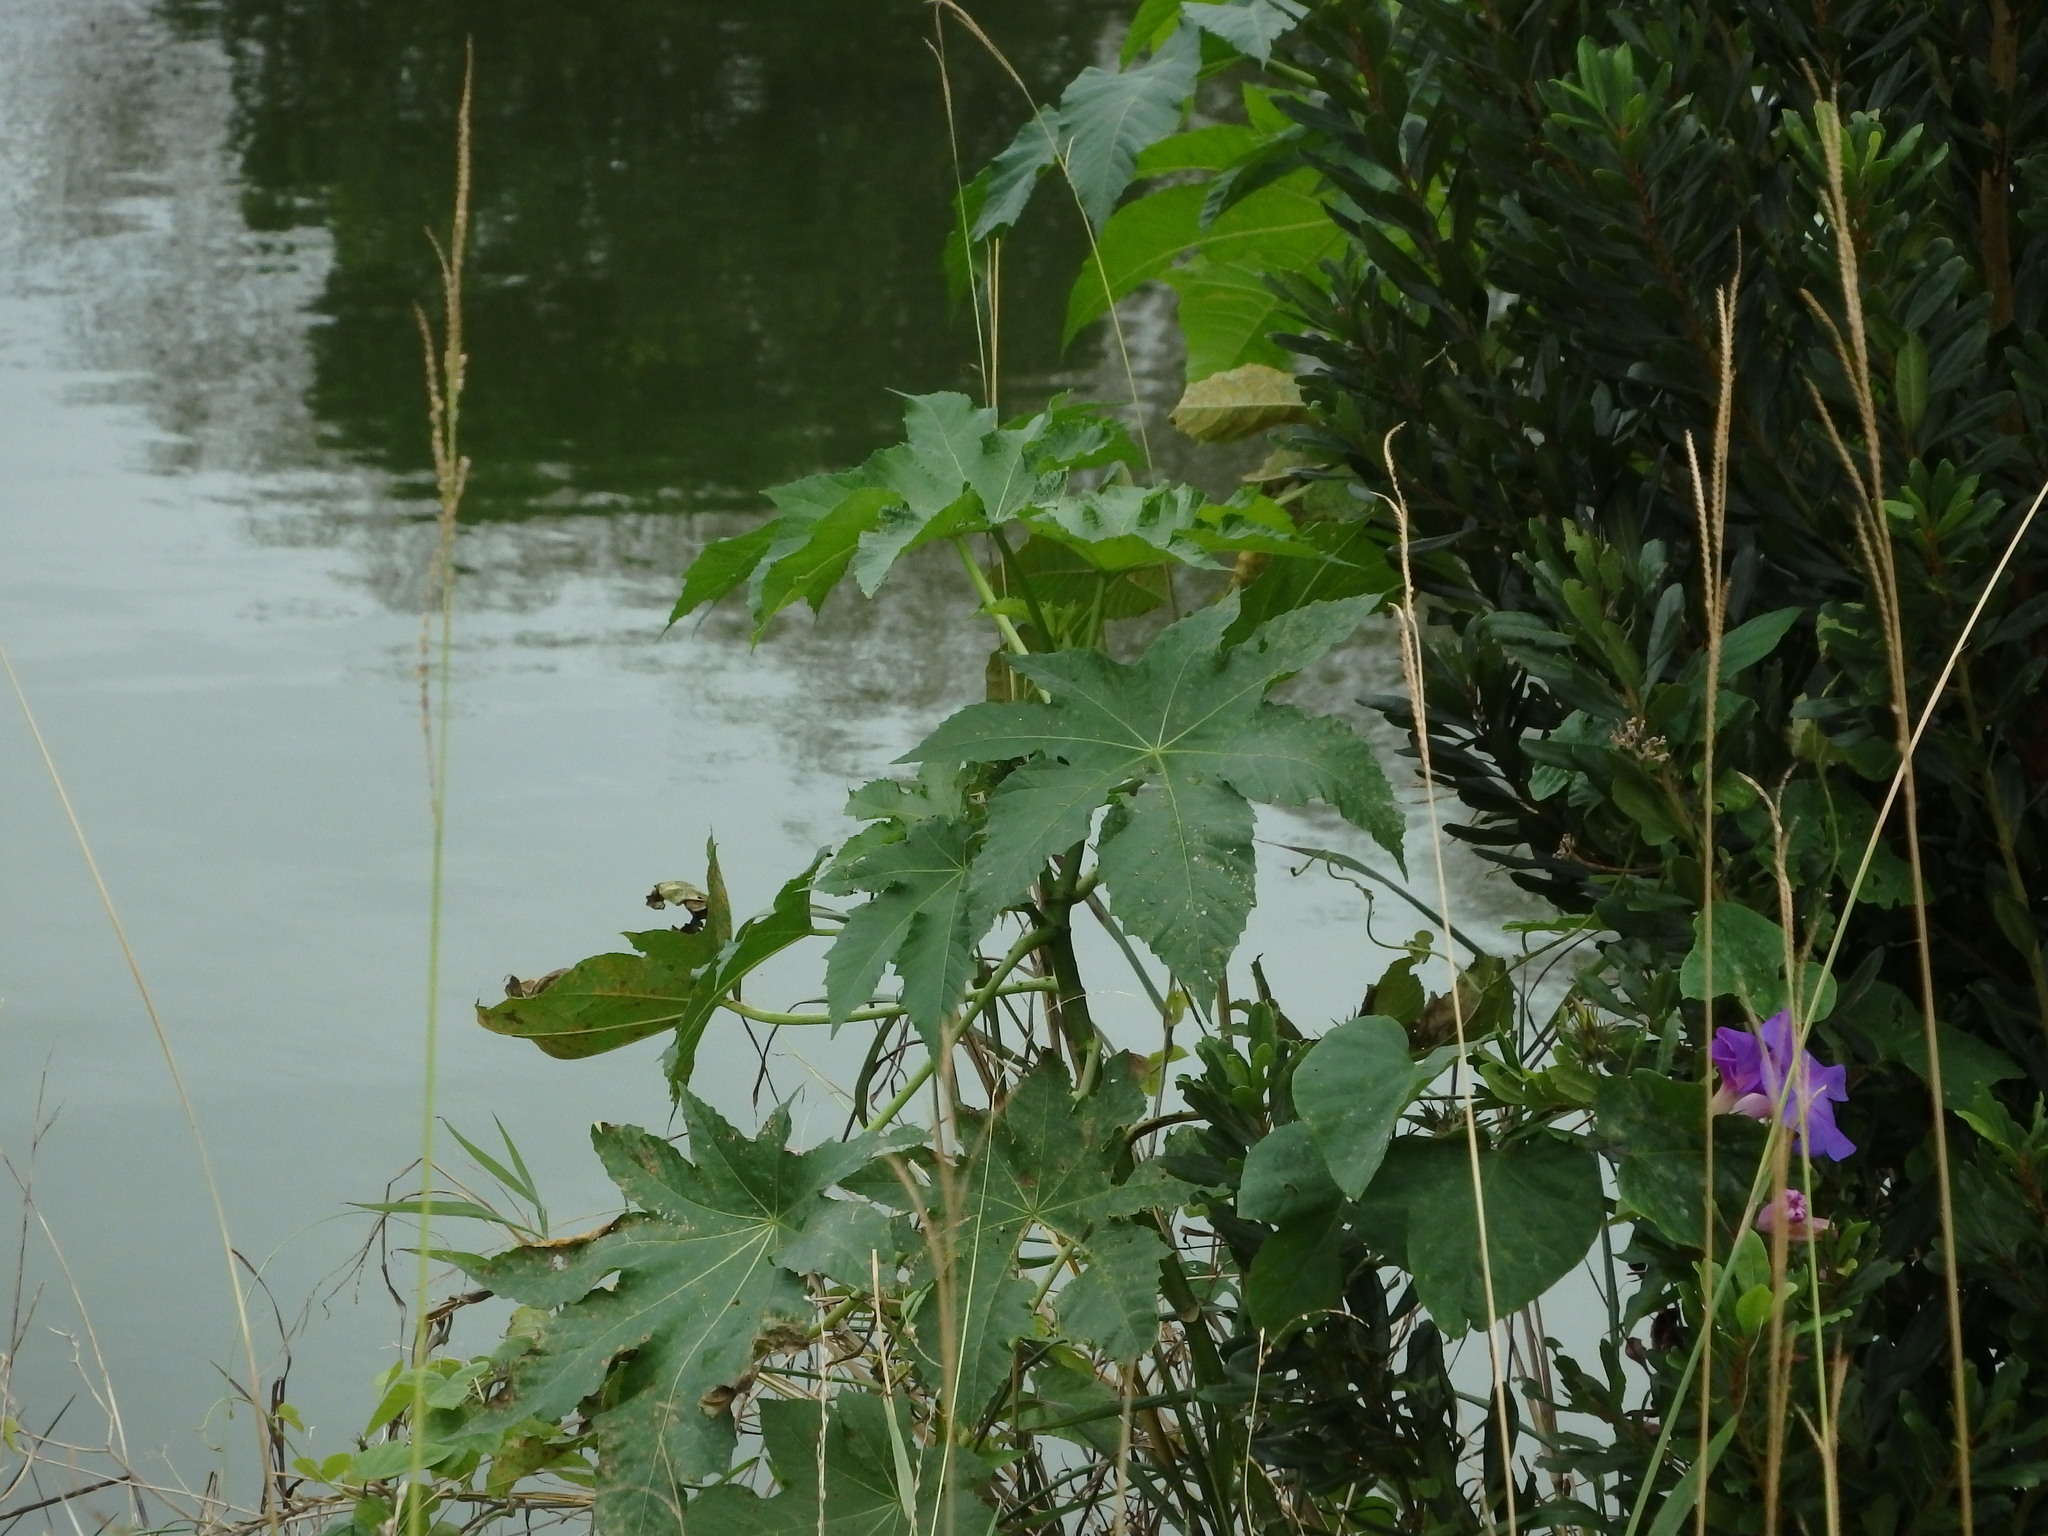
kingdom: Plantae
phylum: Tracheophyta
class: Magnoliopsida
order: Malpighiales
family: Euphorbiaceae
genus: Ricinus
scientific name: Ricinus communis
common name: Castor-oil-plant
